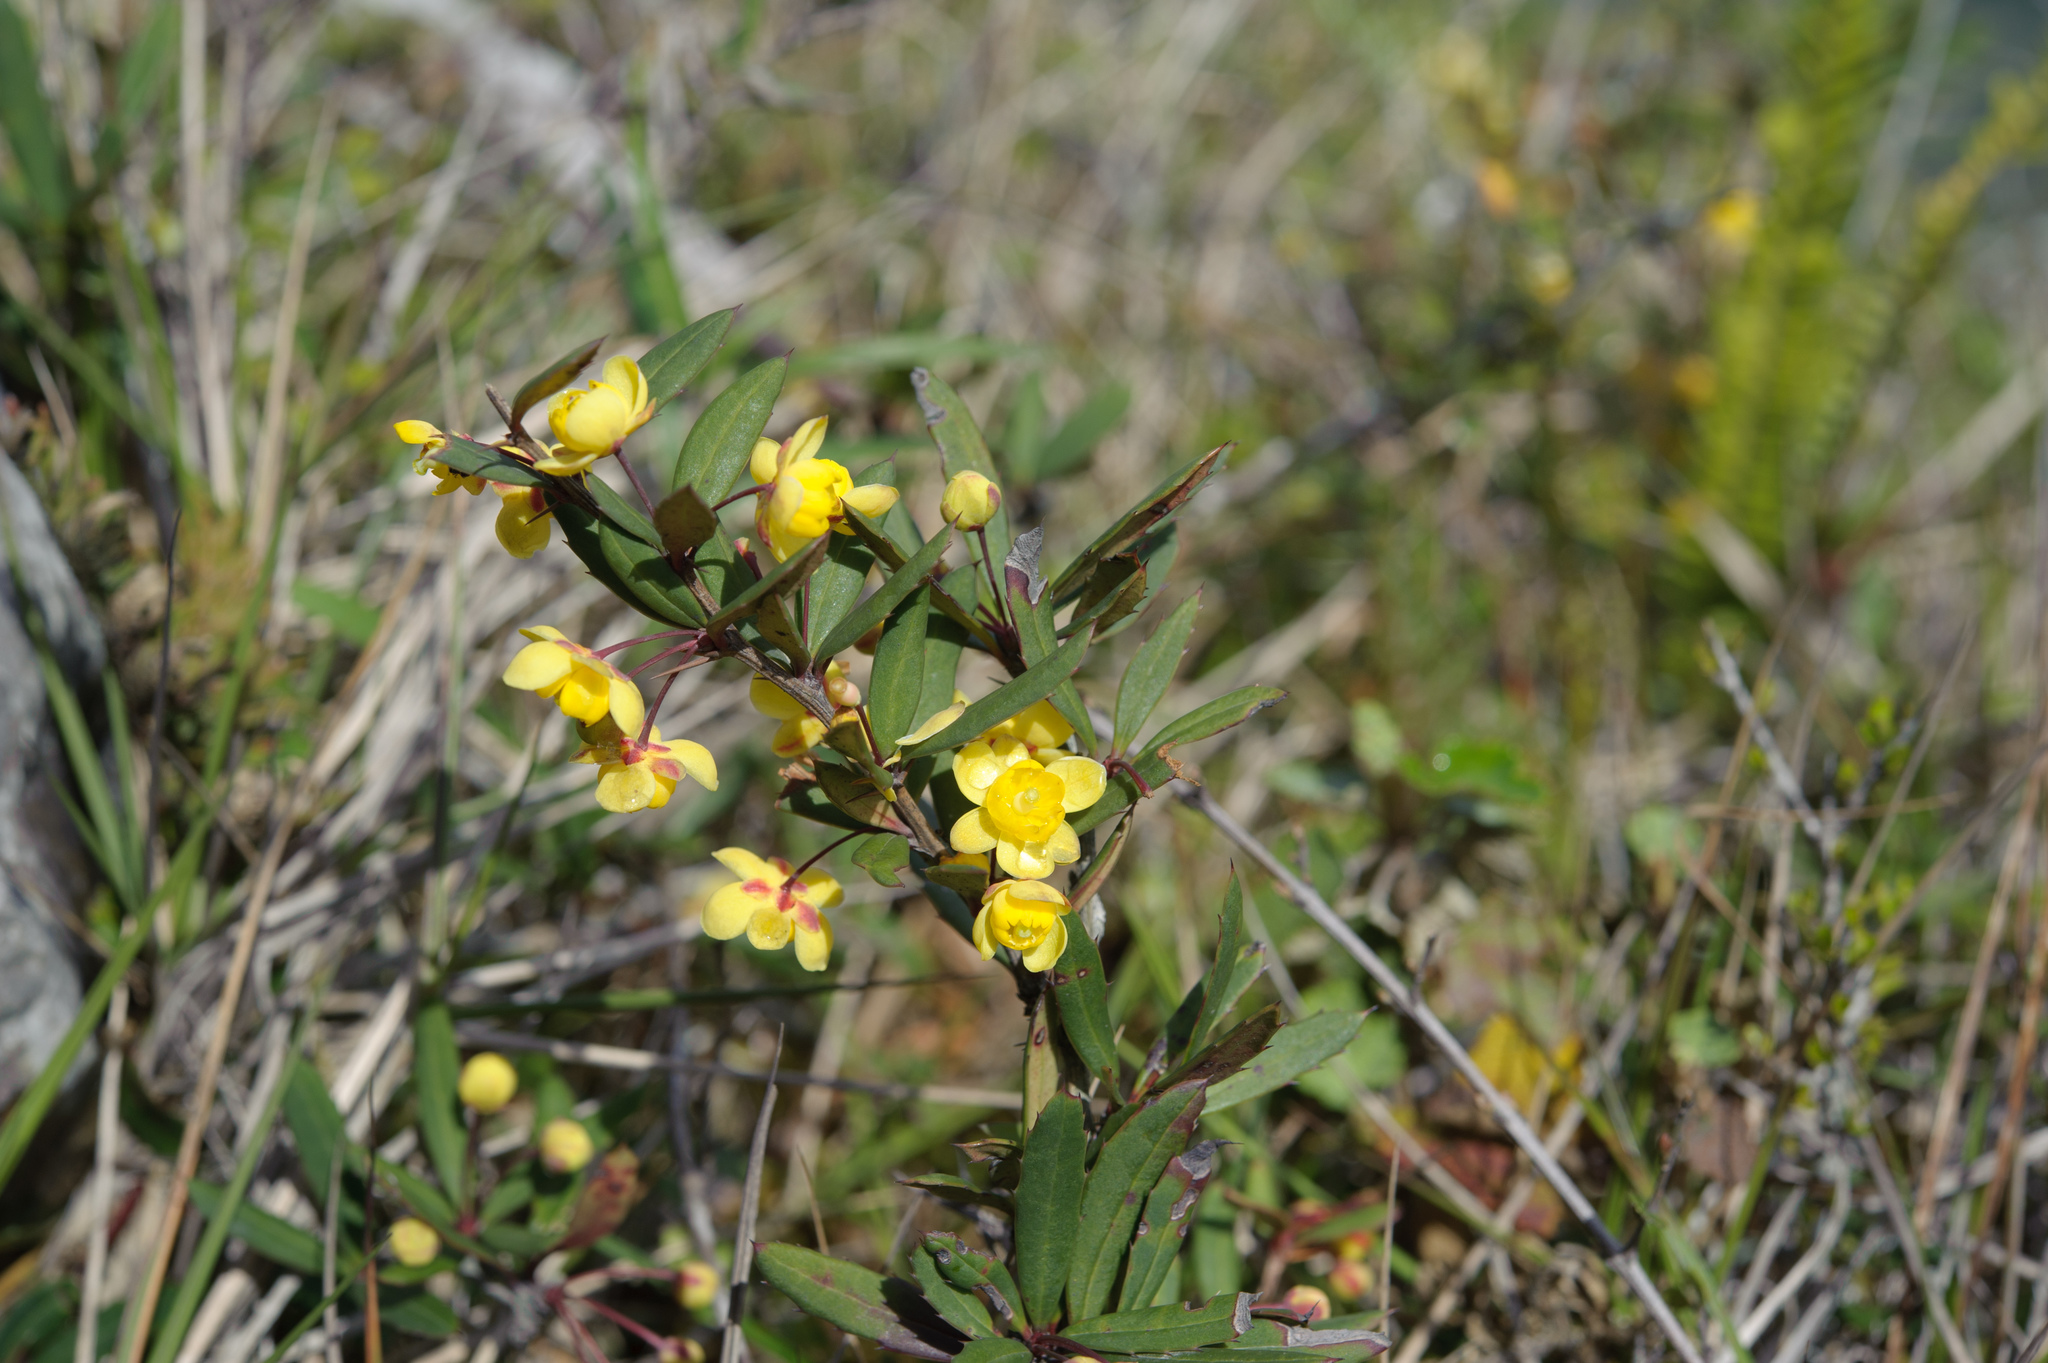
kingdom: Plantae
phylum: Tracheophyta
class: Magnoliopsida
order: Ranunculales
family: Berberidaceae
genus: Berberis
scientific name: Berberis tarokoensis
